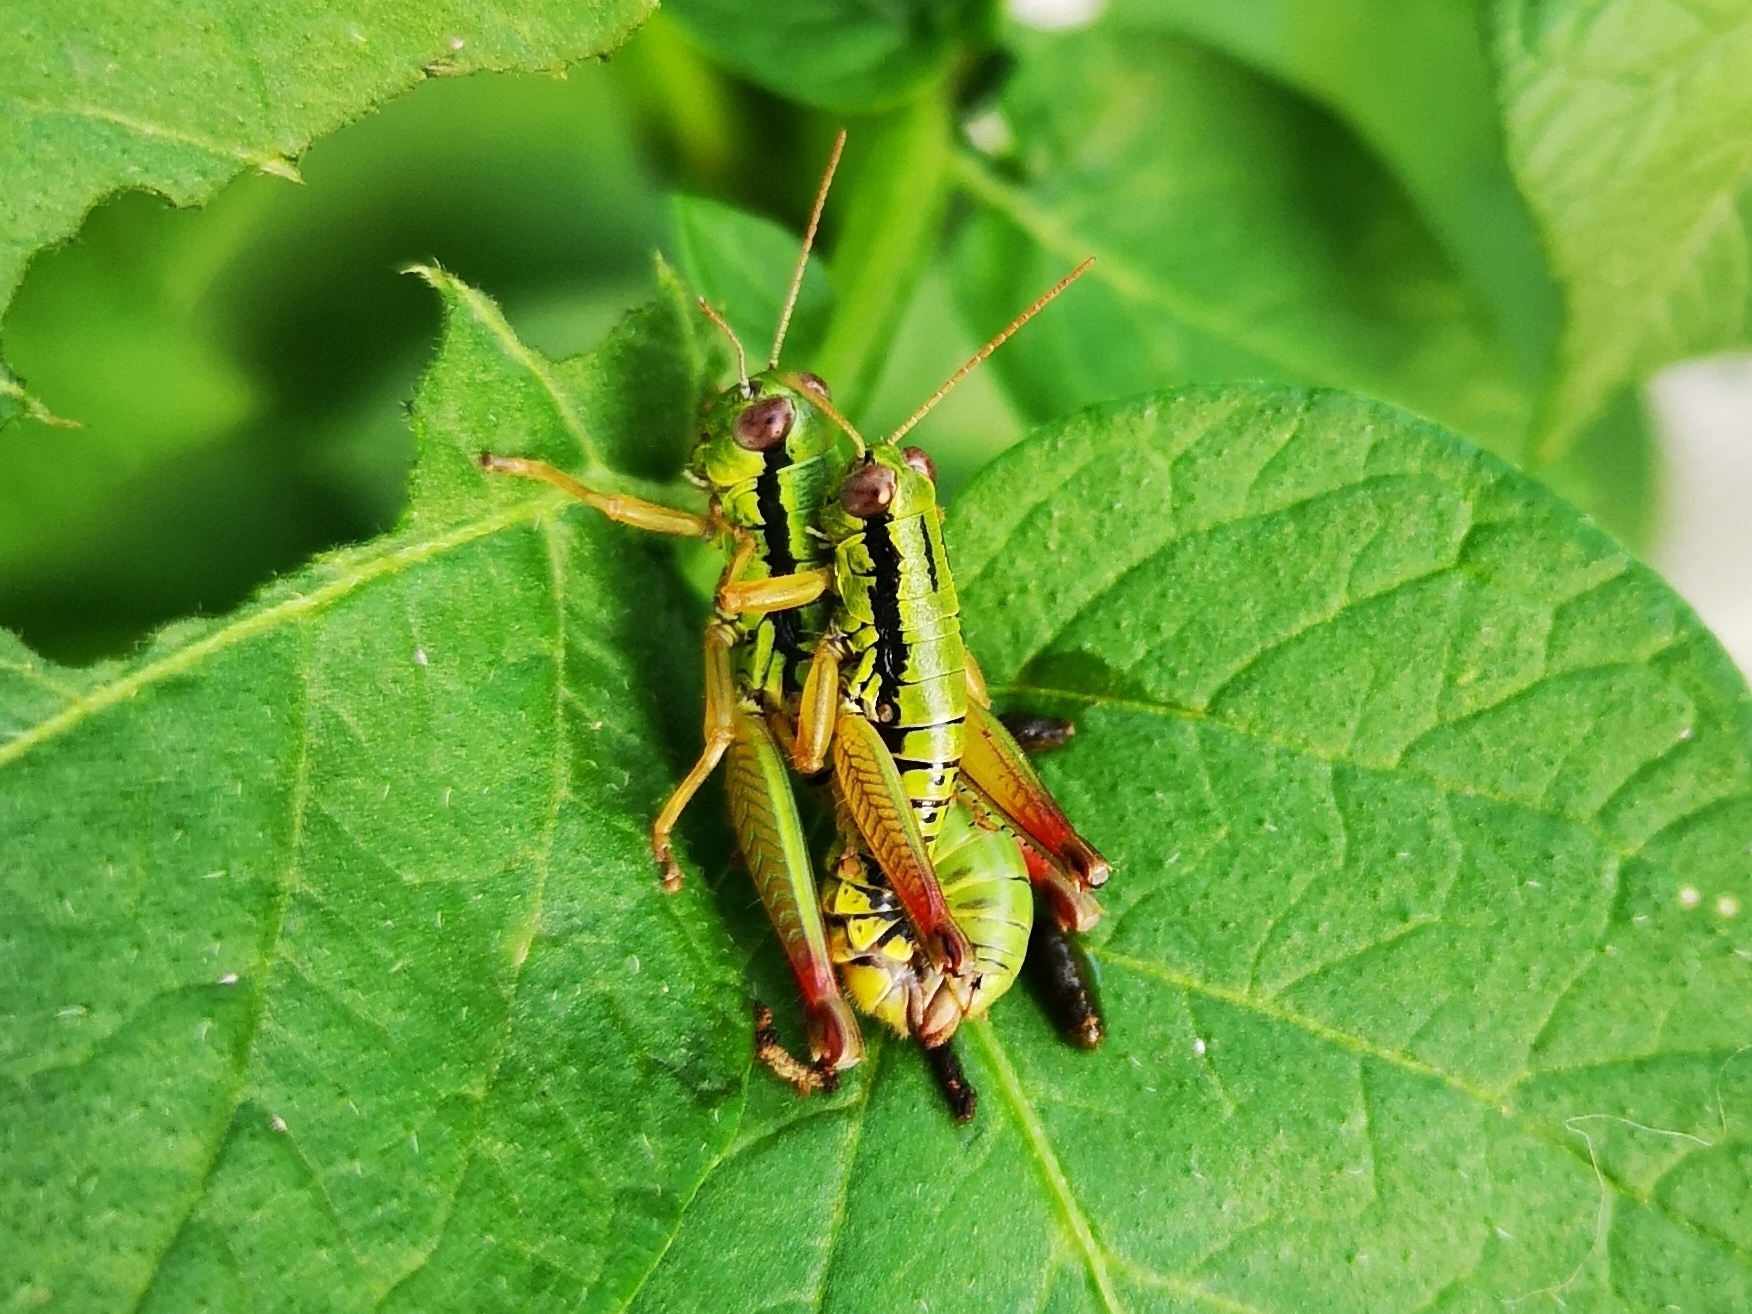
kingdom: Animalia
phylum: Arthropoda
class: Insecta
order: Orthoptera
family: Acrididae
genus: Micropodisma
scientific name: Micropodisma salamandra
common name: Foothill mountain grasshopper
